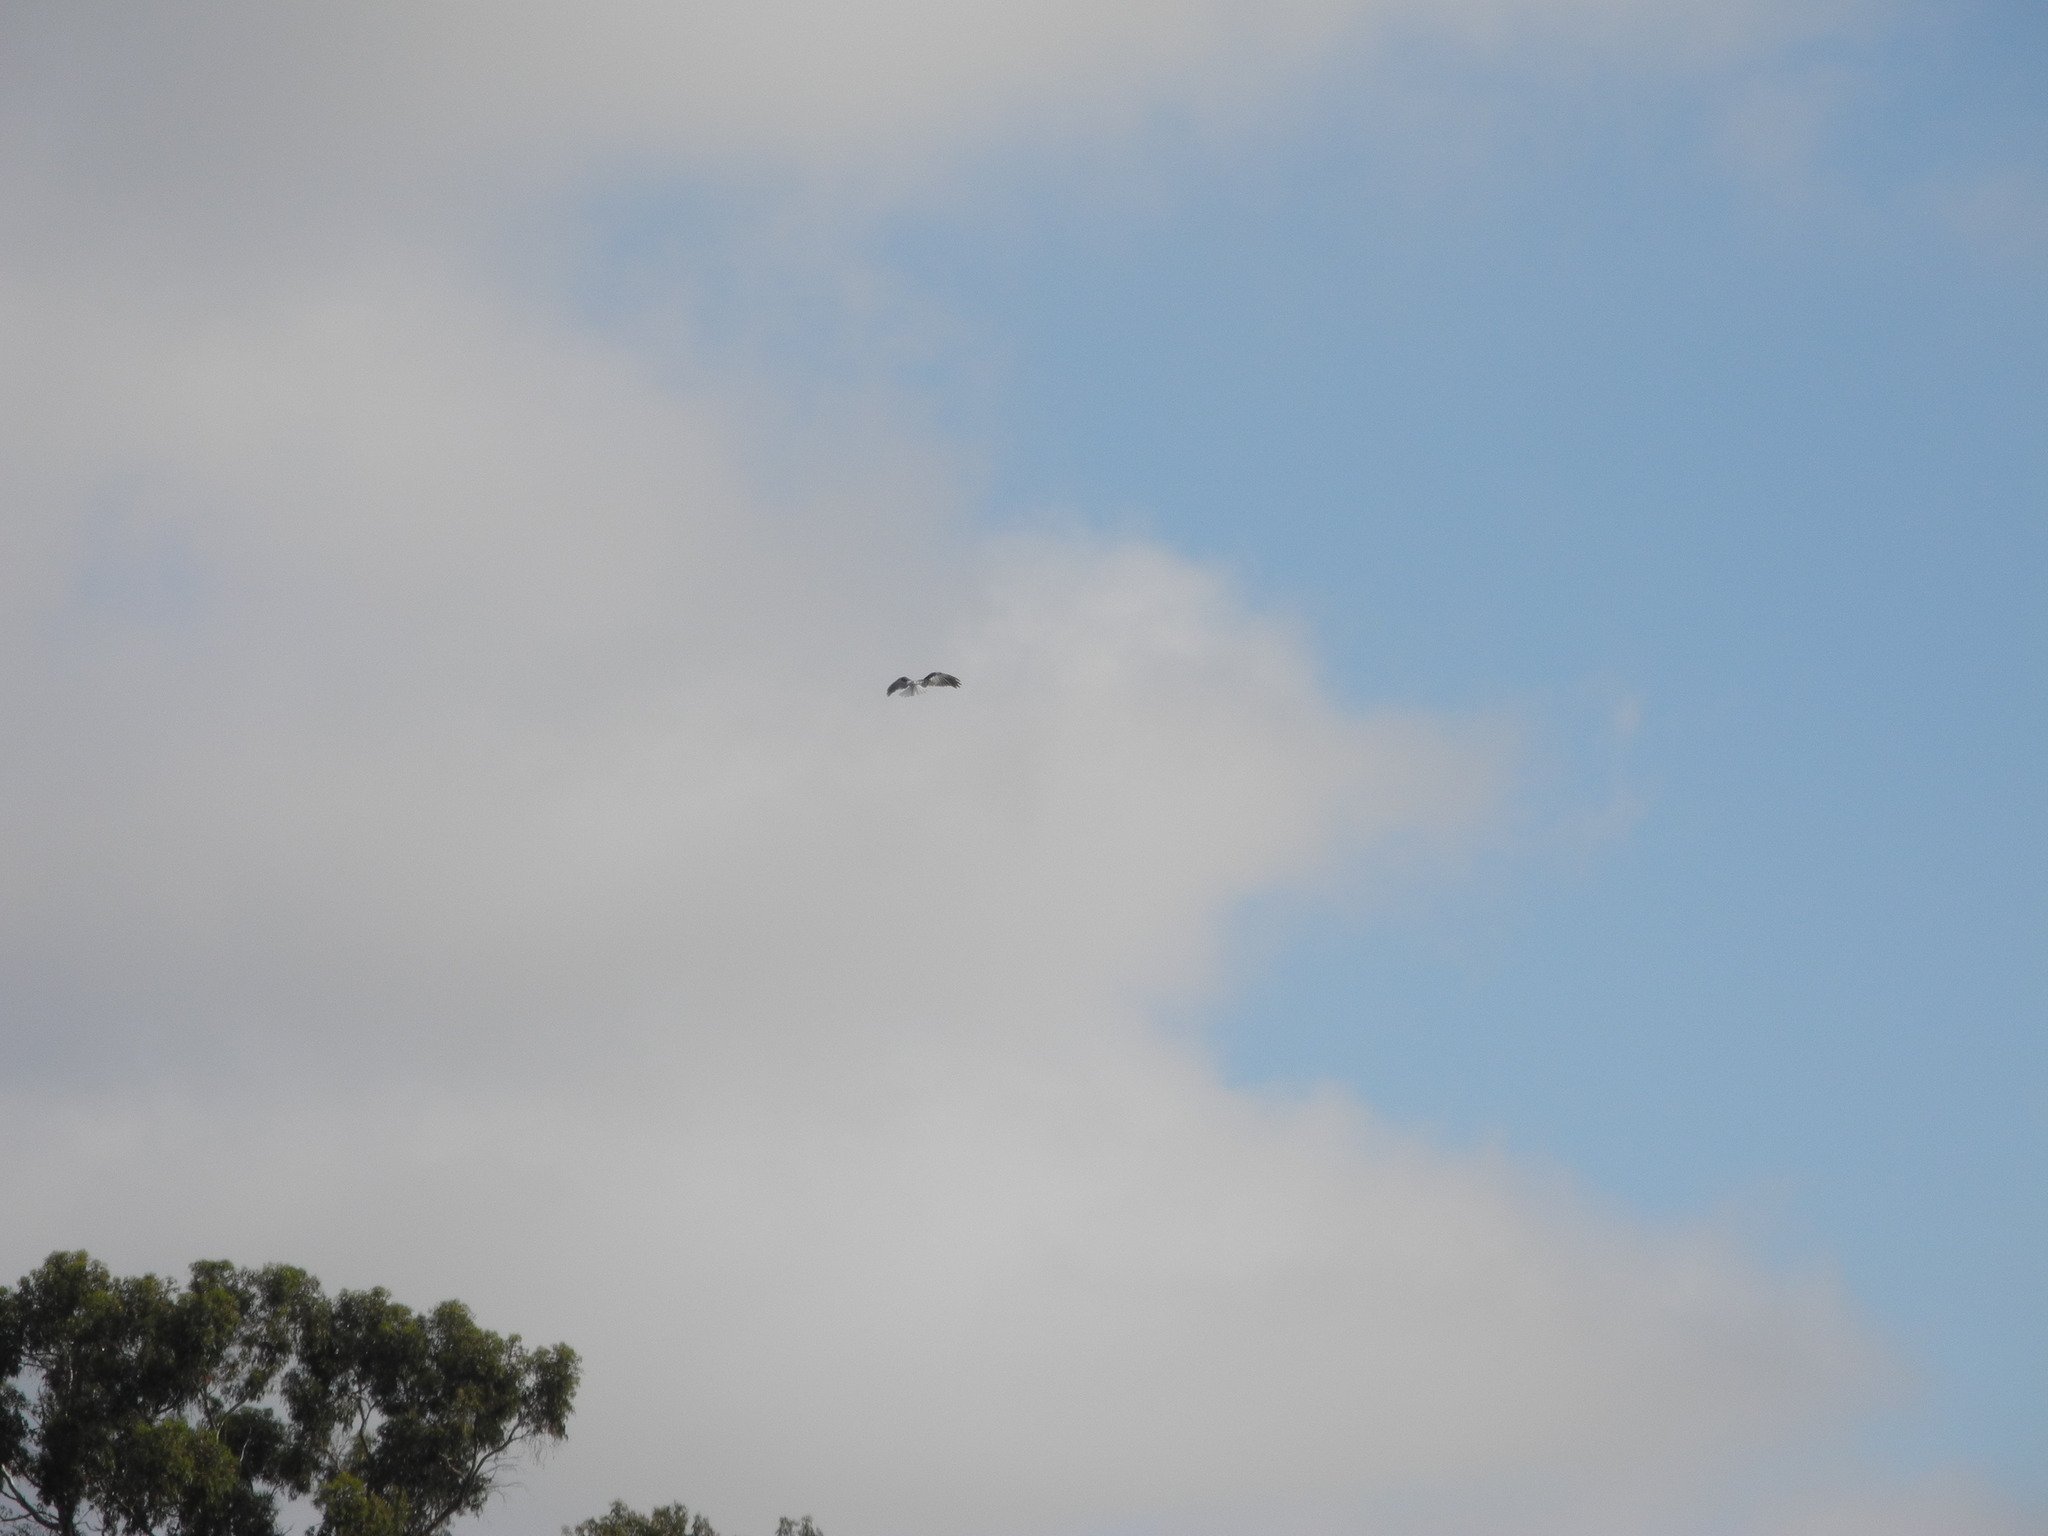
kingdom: Animalia
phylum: Chordata
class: Aves
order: Accipitriformes
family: Accipitridae
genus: Elanus
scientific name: Elanus leucurus
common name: White-tailed kite
